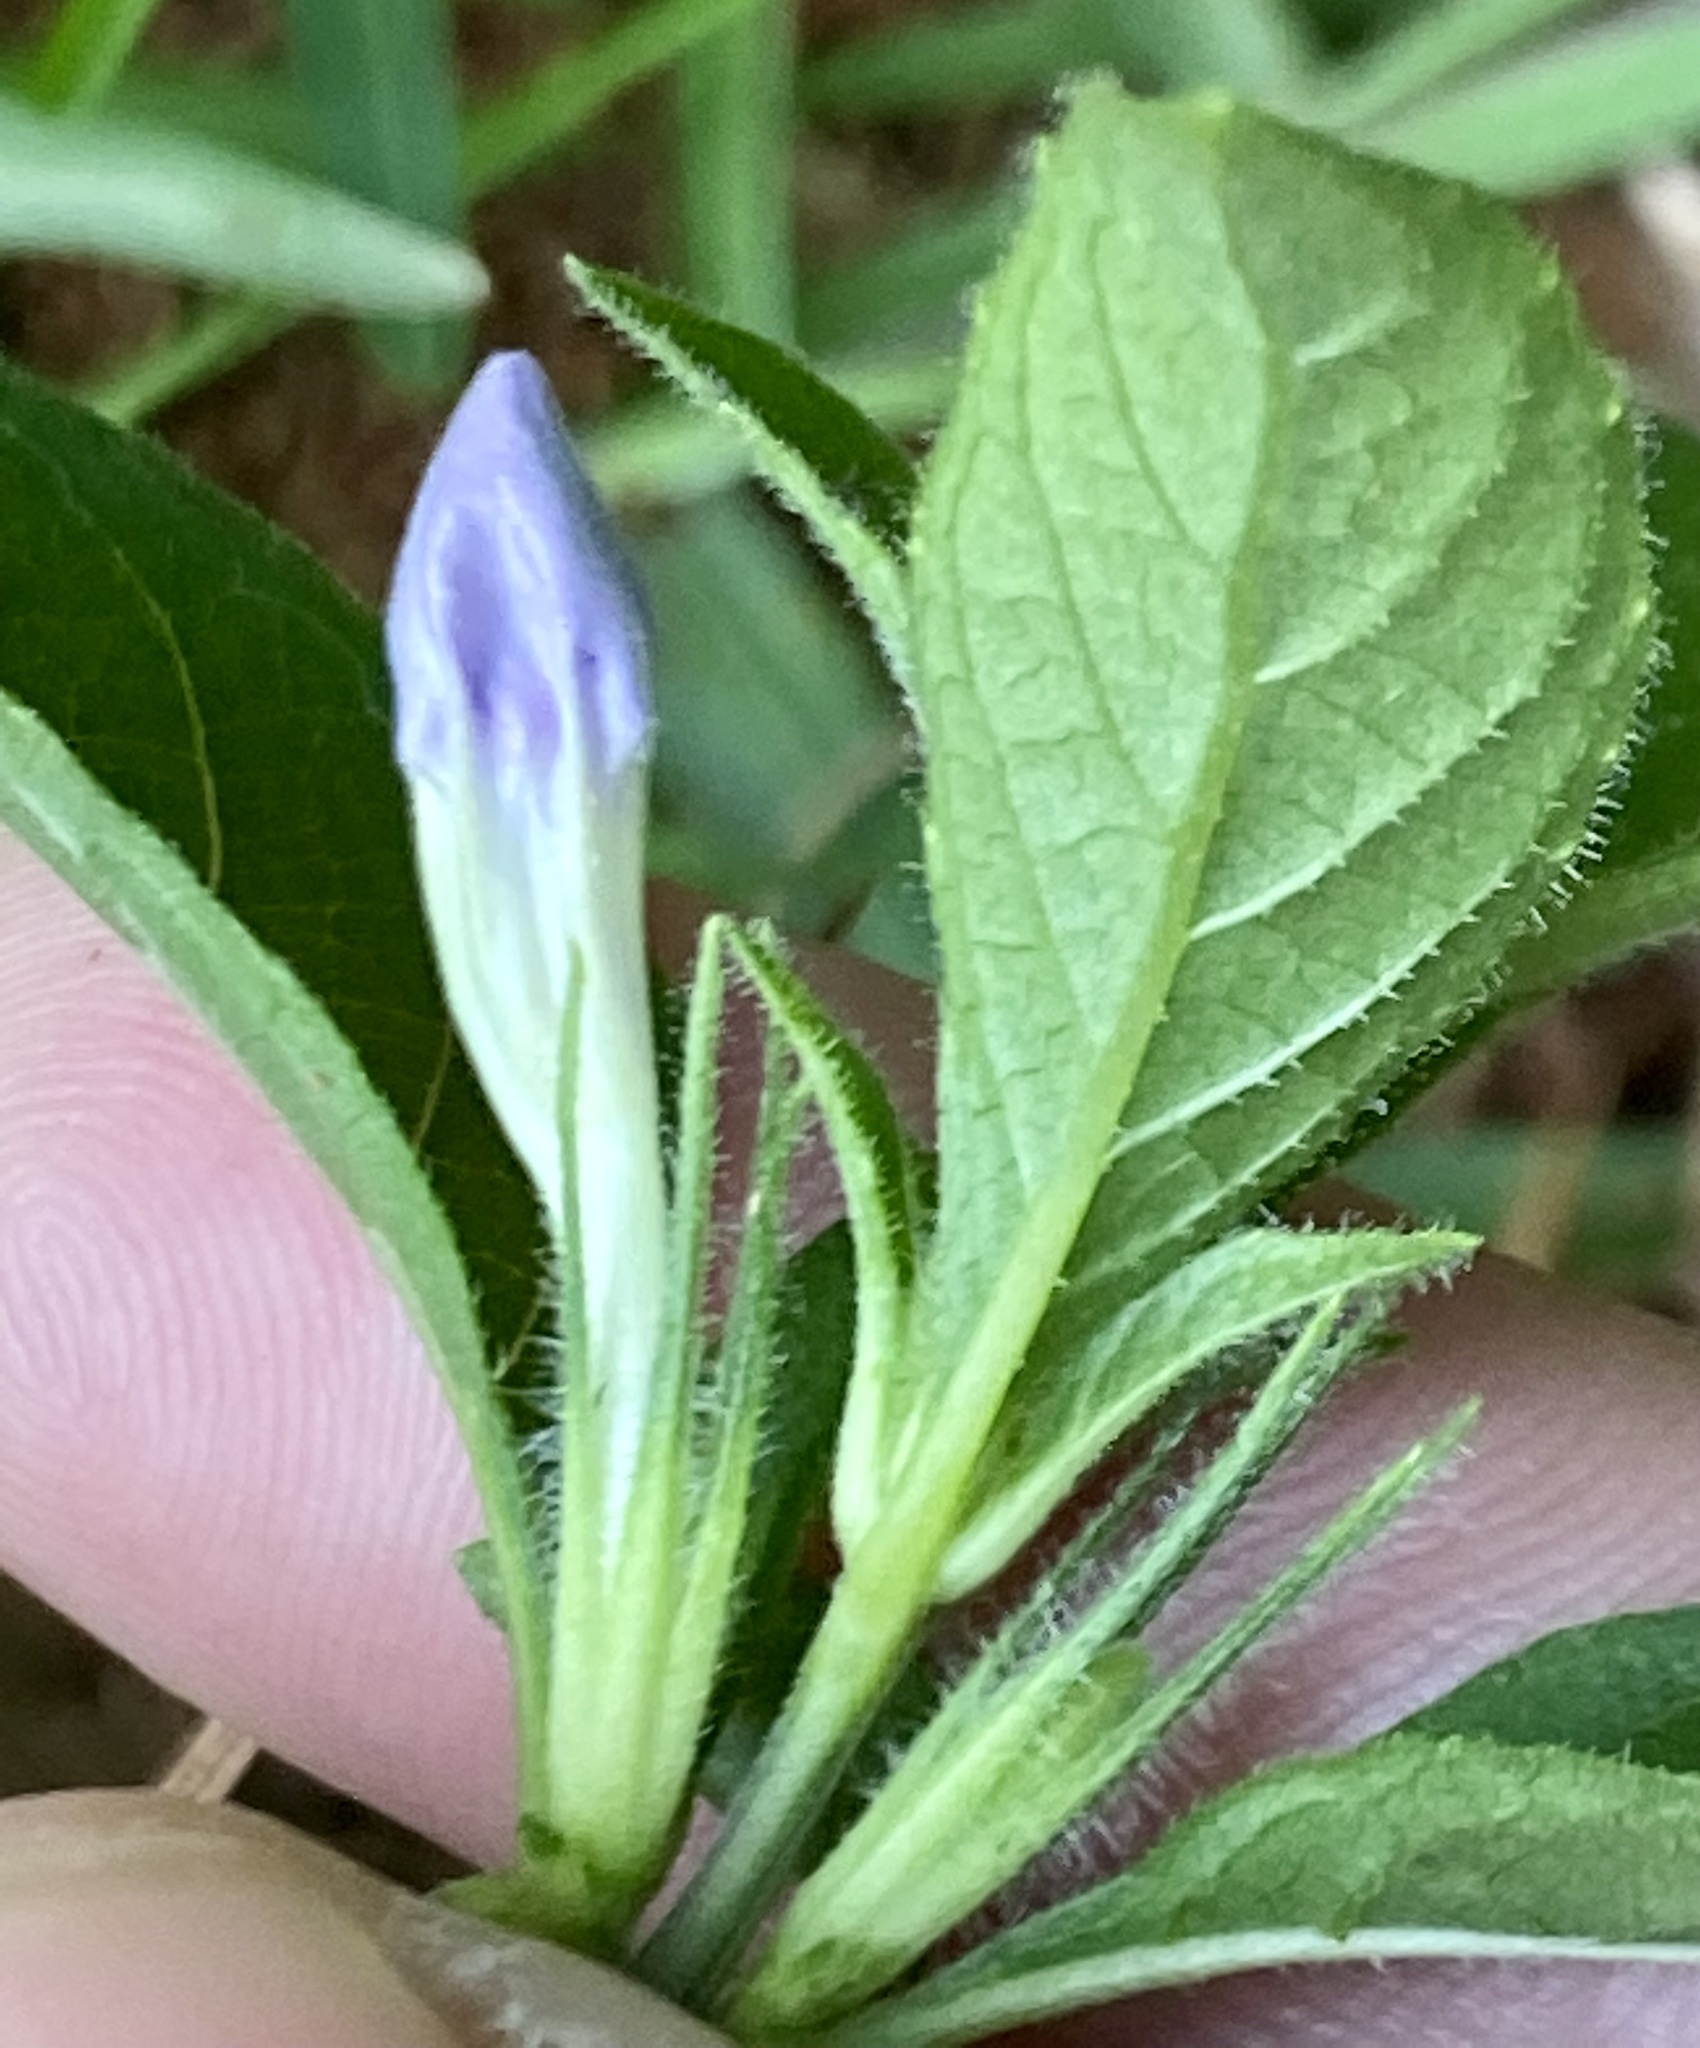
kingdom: Plantae
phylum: Tracheophyta
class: Magnoliopsida
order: Lamiales
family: Acanthaceae
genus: Ruellia
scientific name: Ruellia caroliniensis
